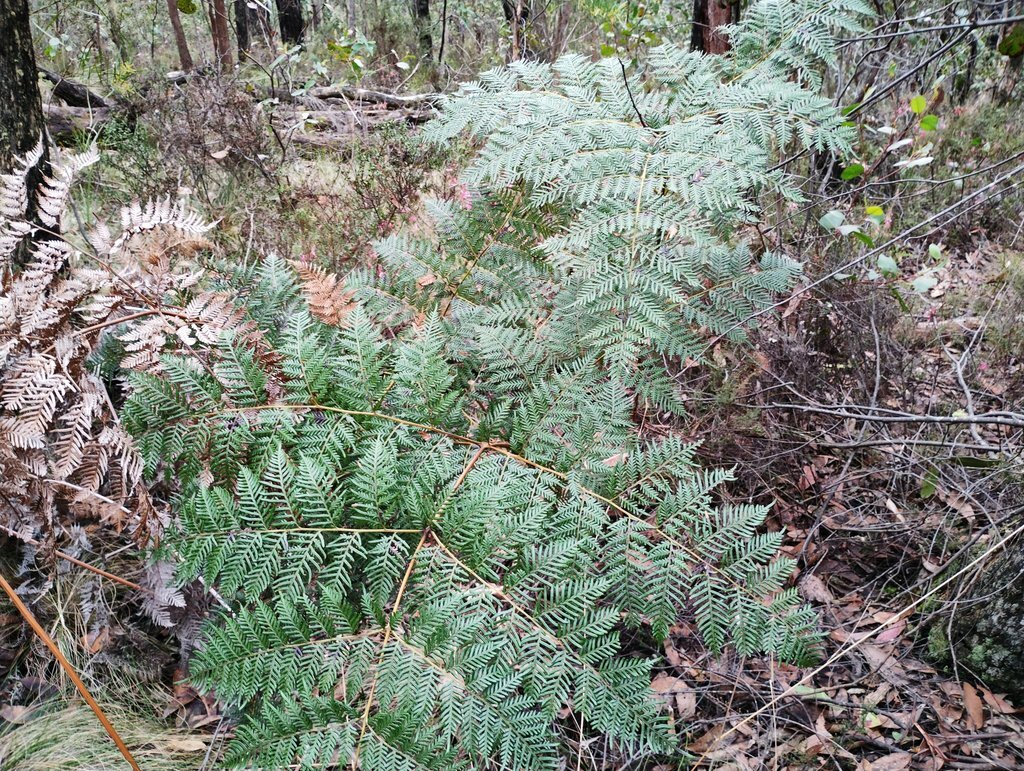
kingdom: Plantae
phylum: Tracheophyta
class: Polypodiopsida
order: Polypodiales
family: Dennstaedtiaceae
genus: Pteridium
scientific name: Pteridium esculentum
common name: Bracken fern
